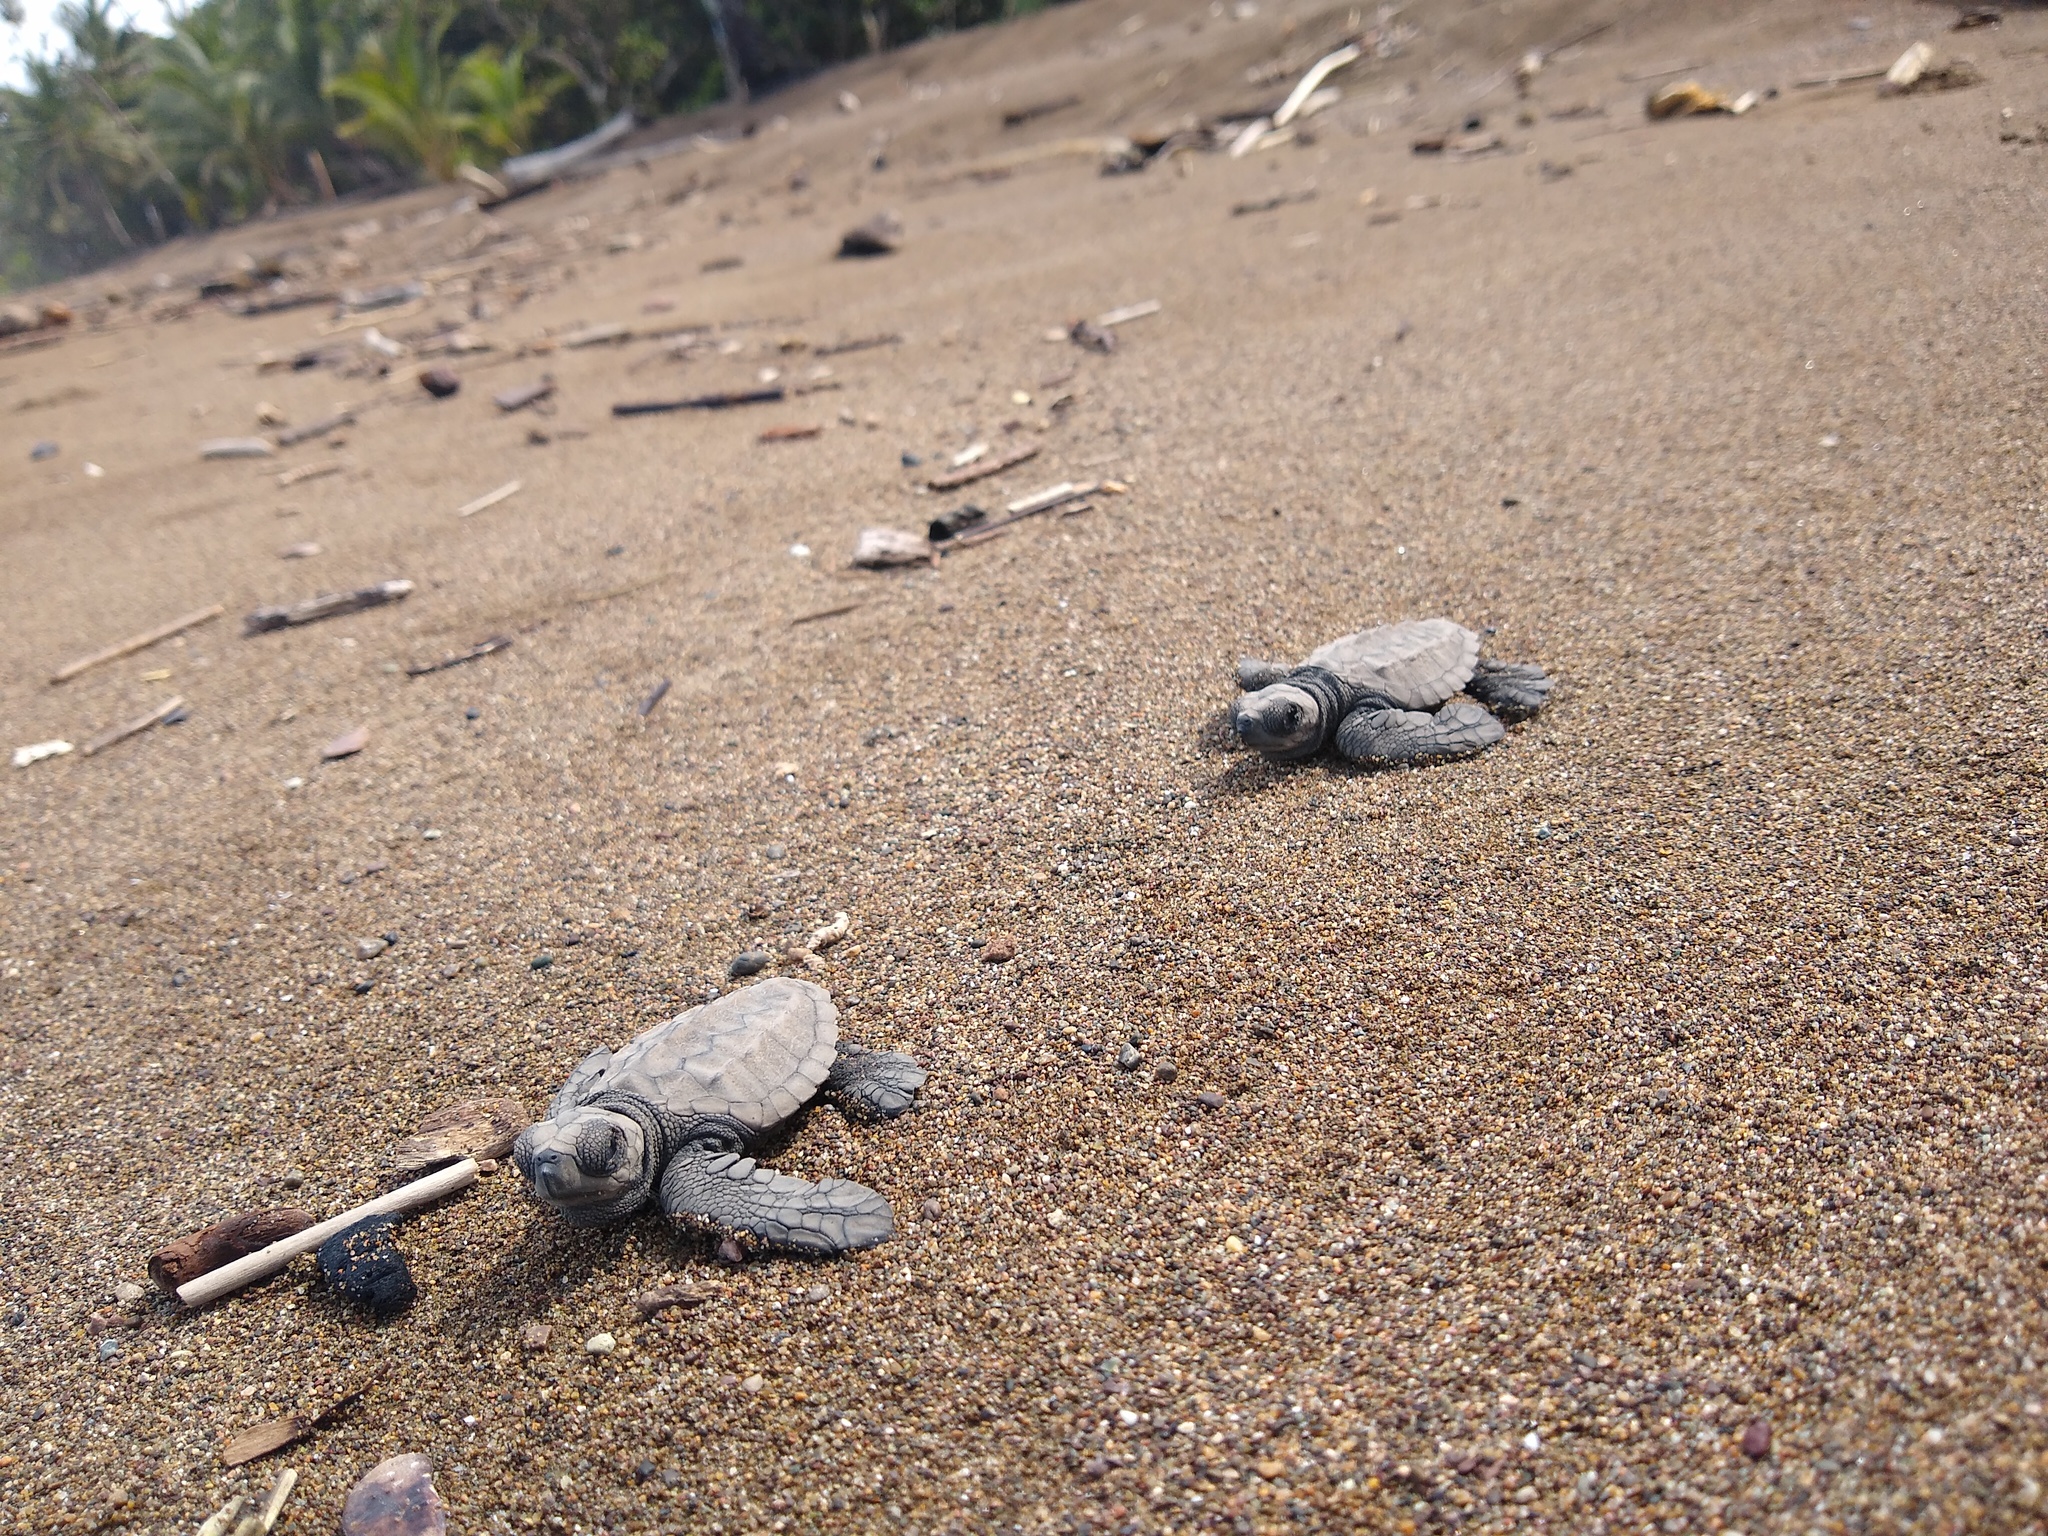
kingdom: Animalia
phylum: Chordata
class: Testudines
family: Cheloniidae
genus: Lepidochelys
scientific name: Lepidochelys olivacea
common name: Olive ridley
